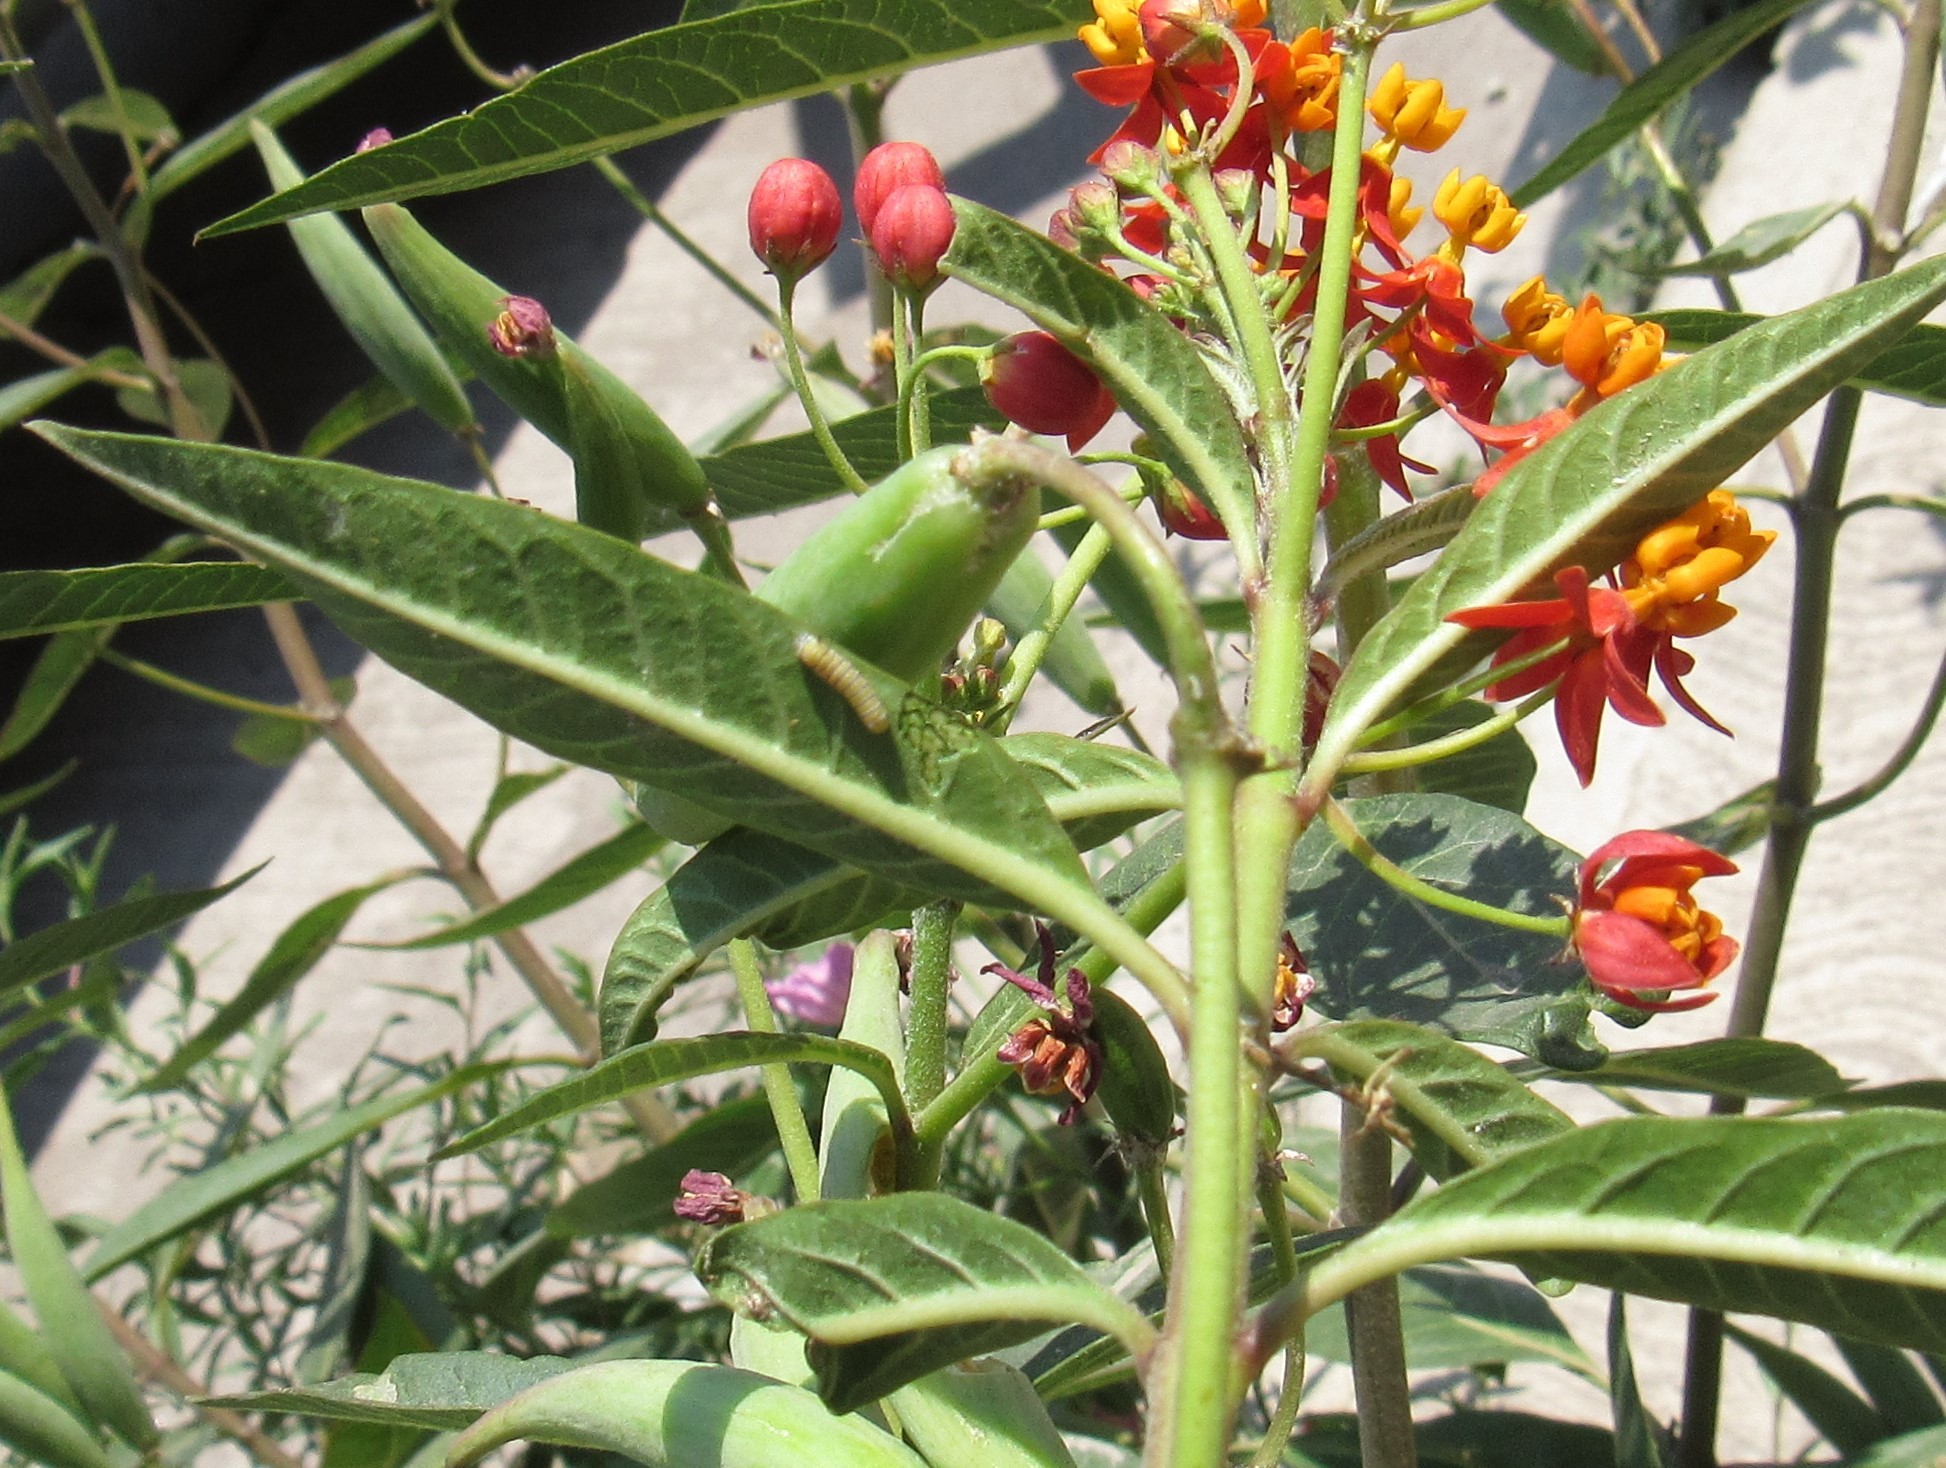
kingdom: Animalia
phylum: Arthropoda
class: Insecta
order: Lepidoptera
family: Nymphalidae
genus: Danaus
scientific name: Danaus plexippus
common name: Monarch
